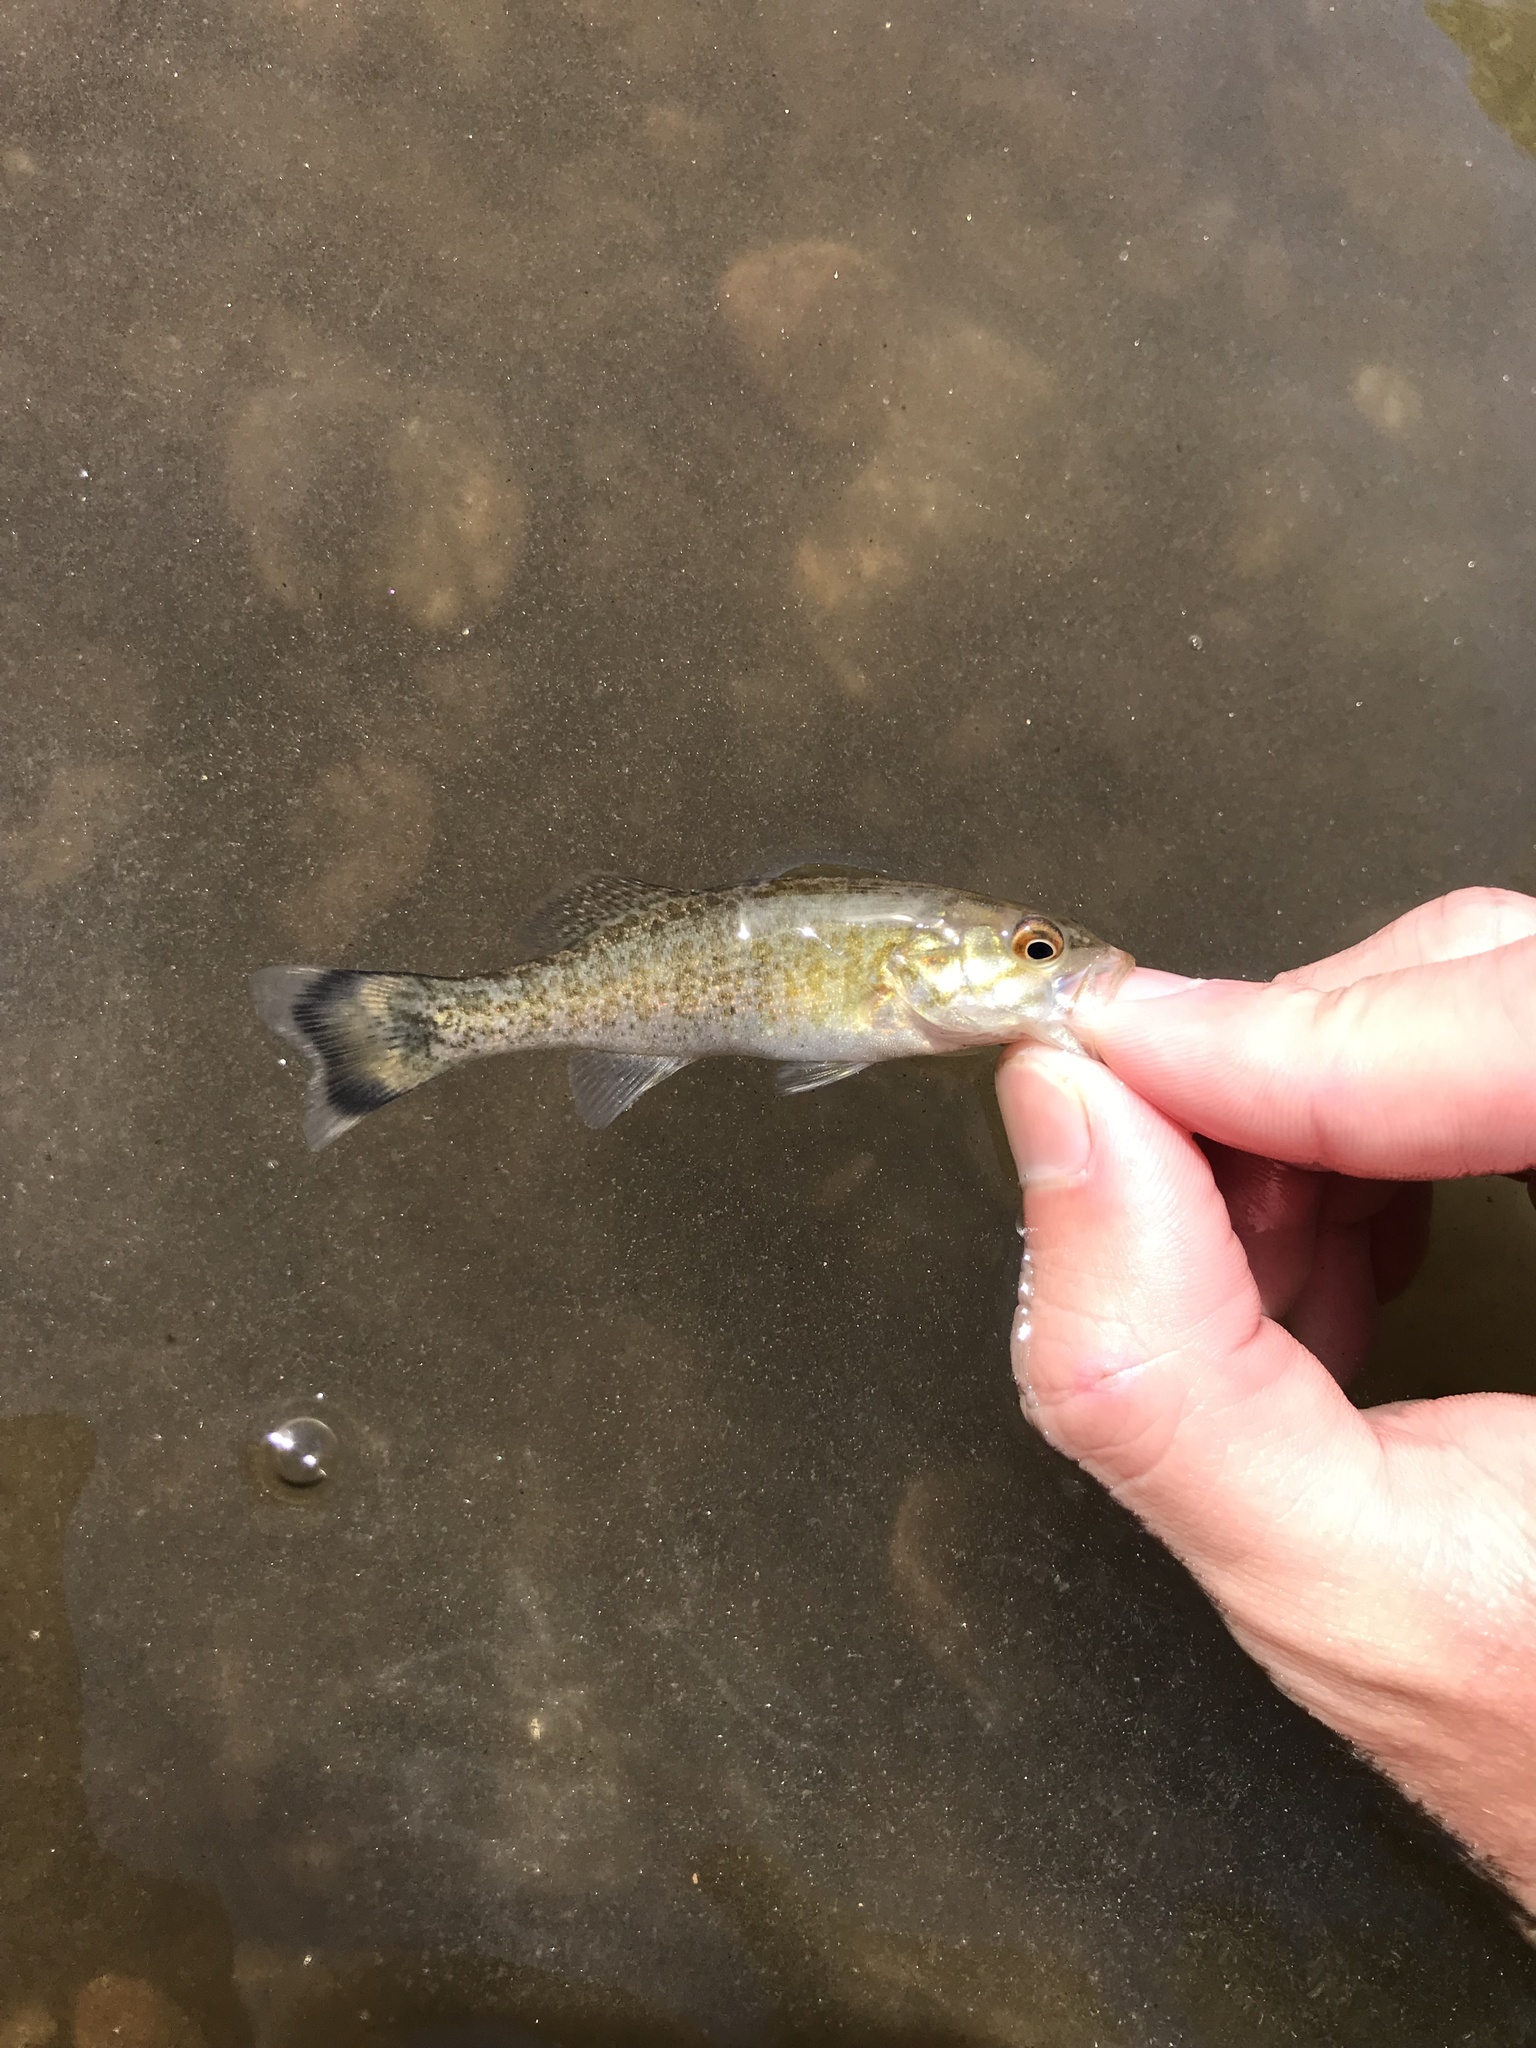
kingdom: Animalia
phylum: Chordata
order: Perciformes
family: Centrarchidae
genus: Micropterus
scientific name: Micropterus dolomieu
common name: Smallmouth bass
